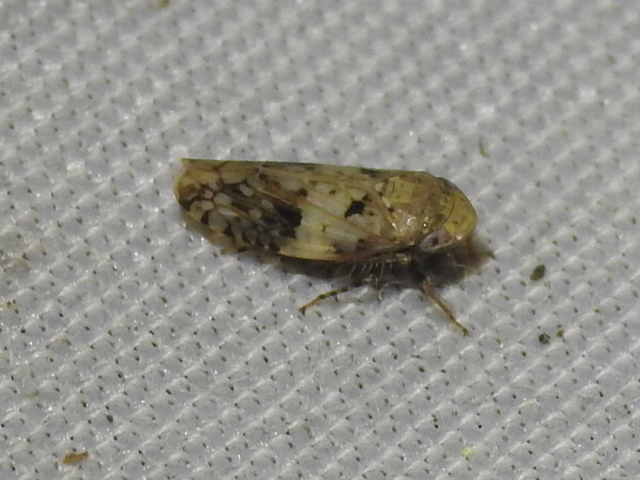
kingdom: Animalia
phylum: Arthropoda
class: Insecta
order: Hemiptera
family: Cicadellidae
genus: Menosoma
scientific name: Menosoma cinctum
